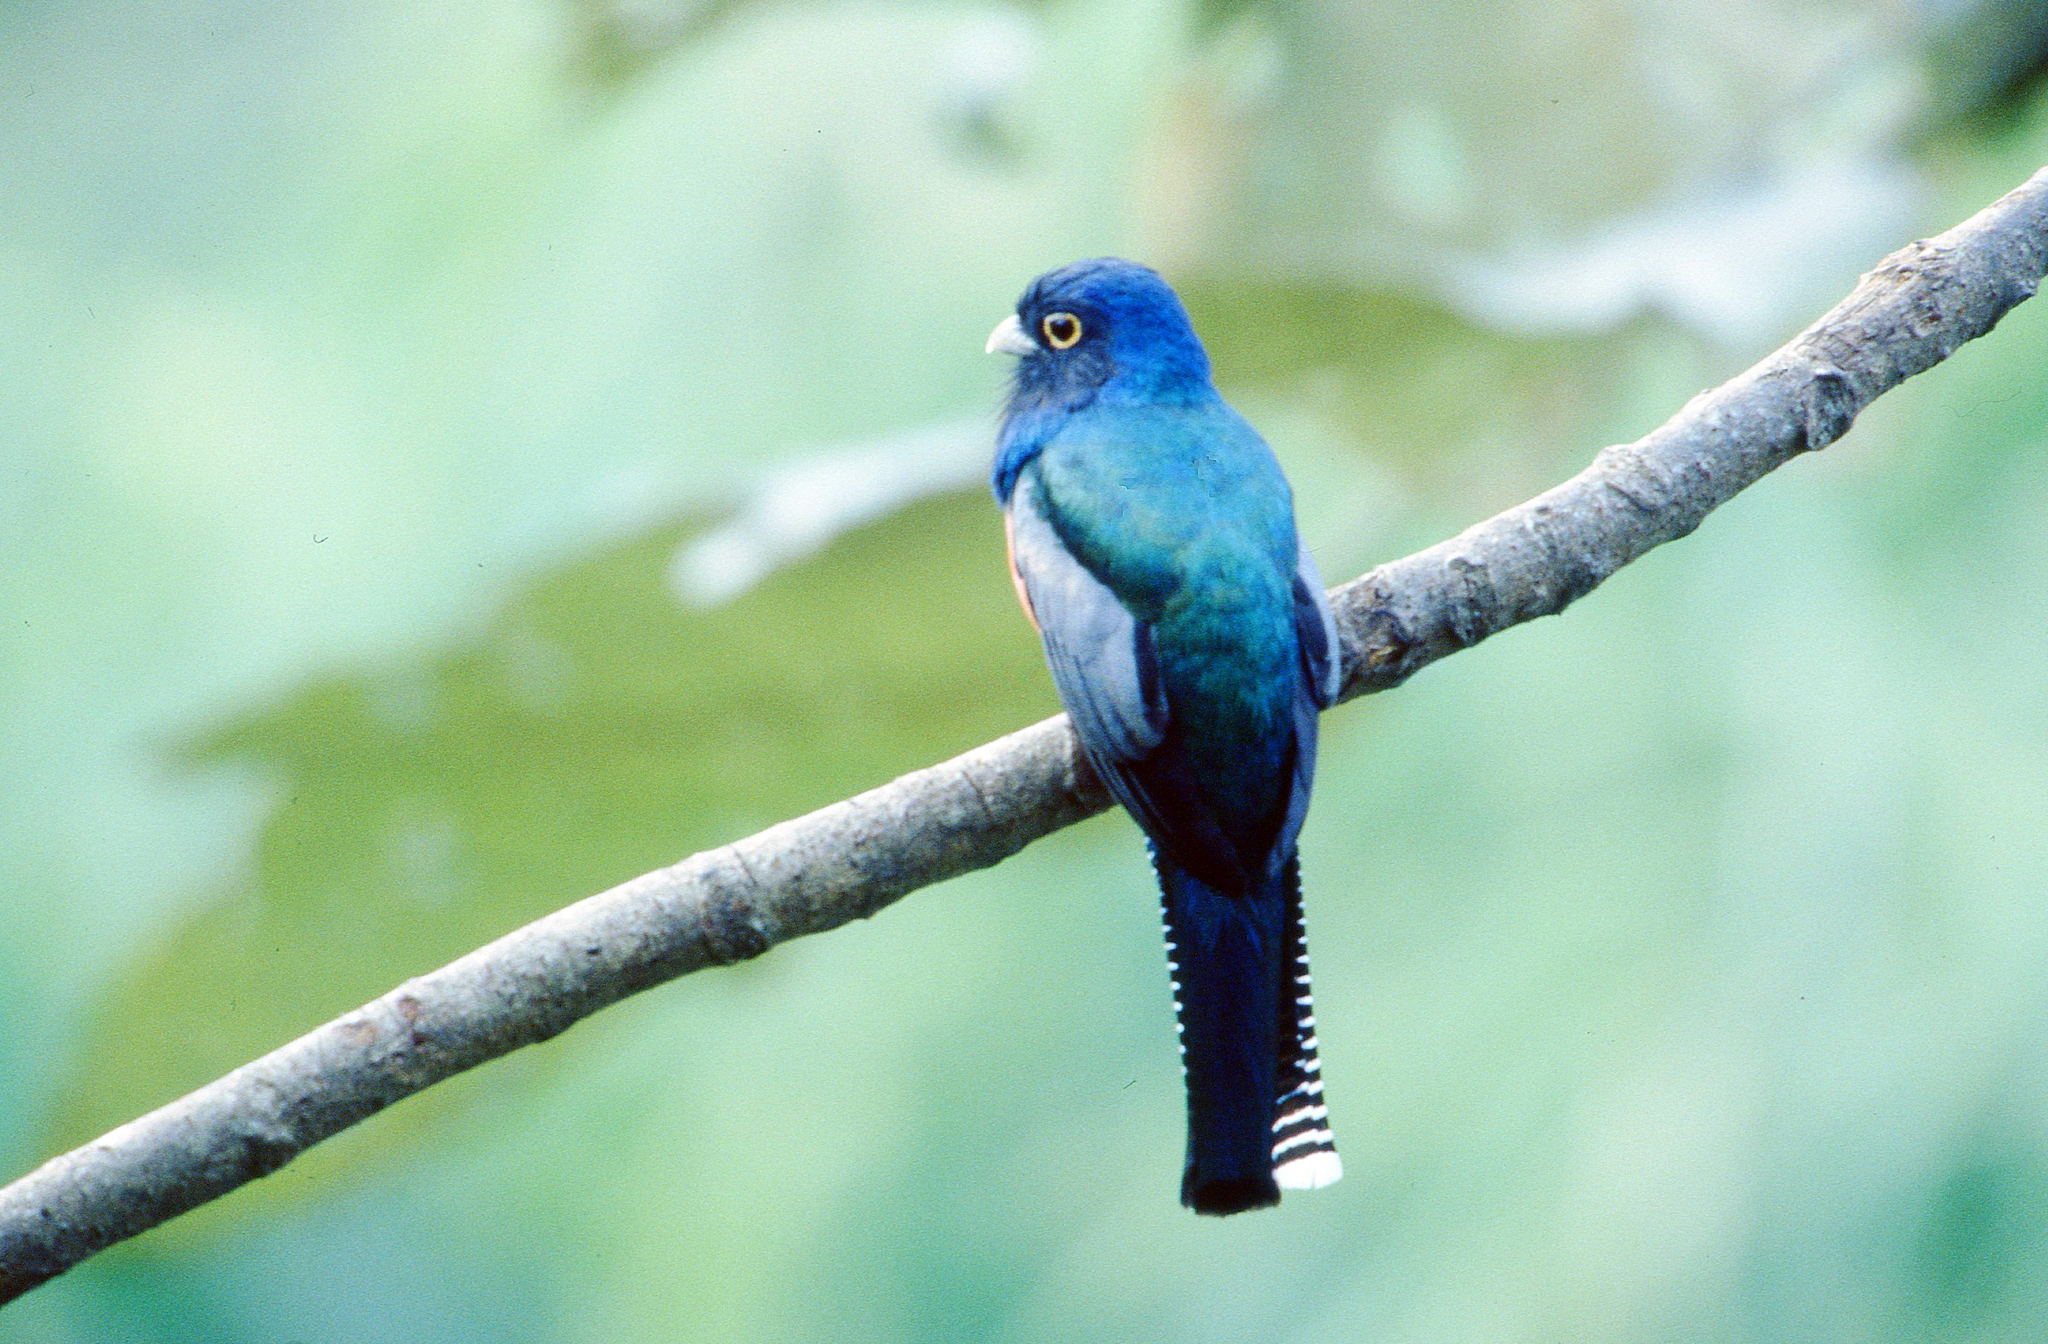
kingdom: Animalia
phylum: Chordata
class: Aves
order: Trogoniformes
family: Trogonidae
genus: Trogon
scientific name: Trogon curucui
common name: Blue-crowned trogon
